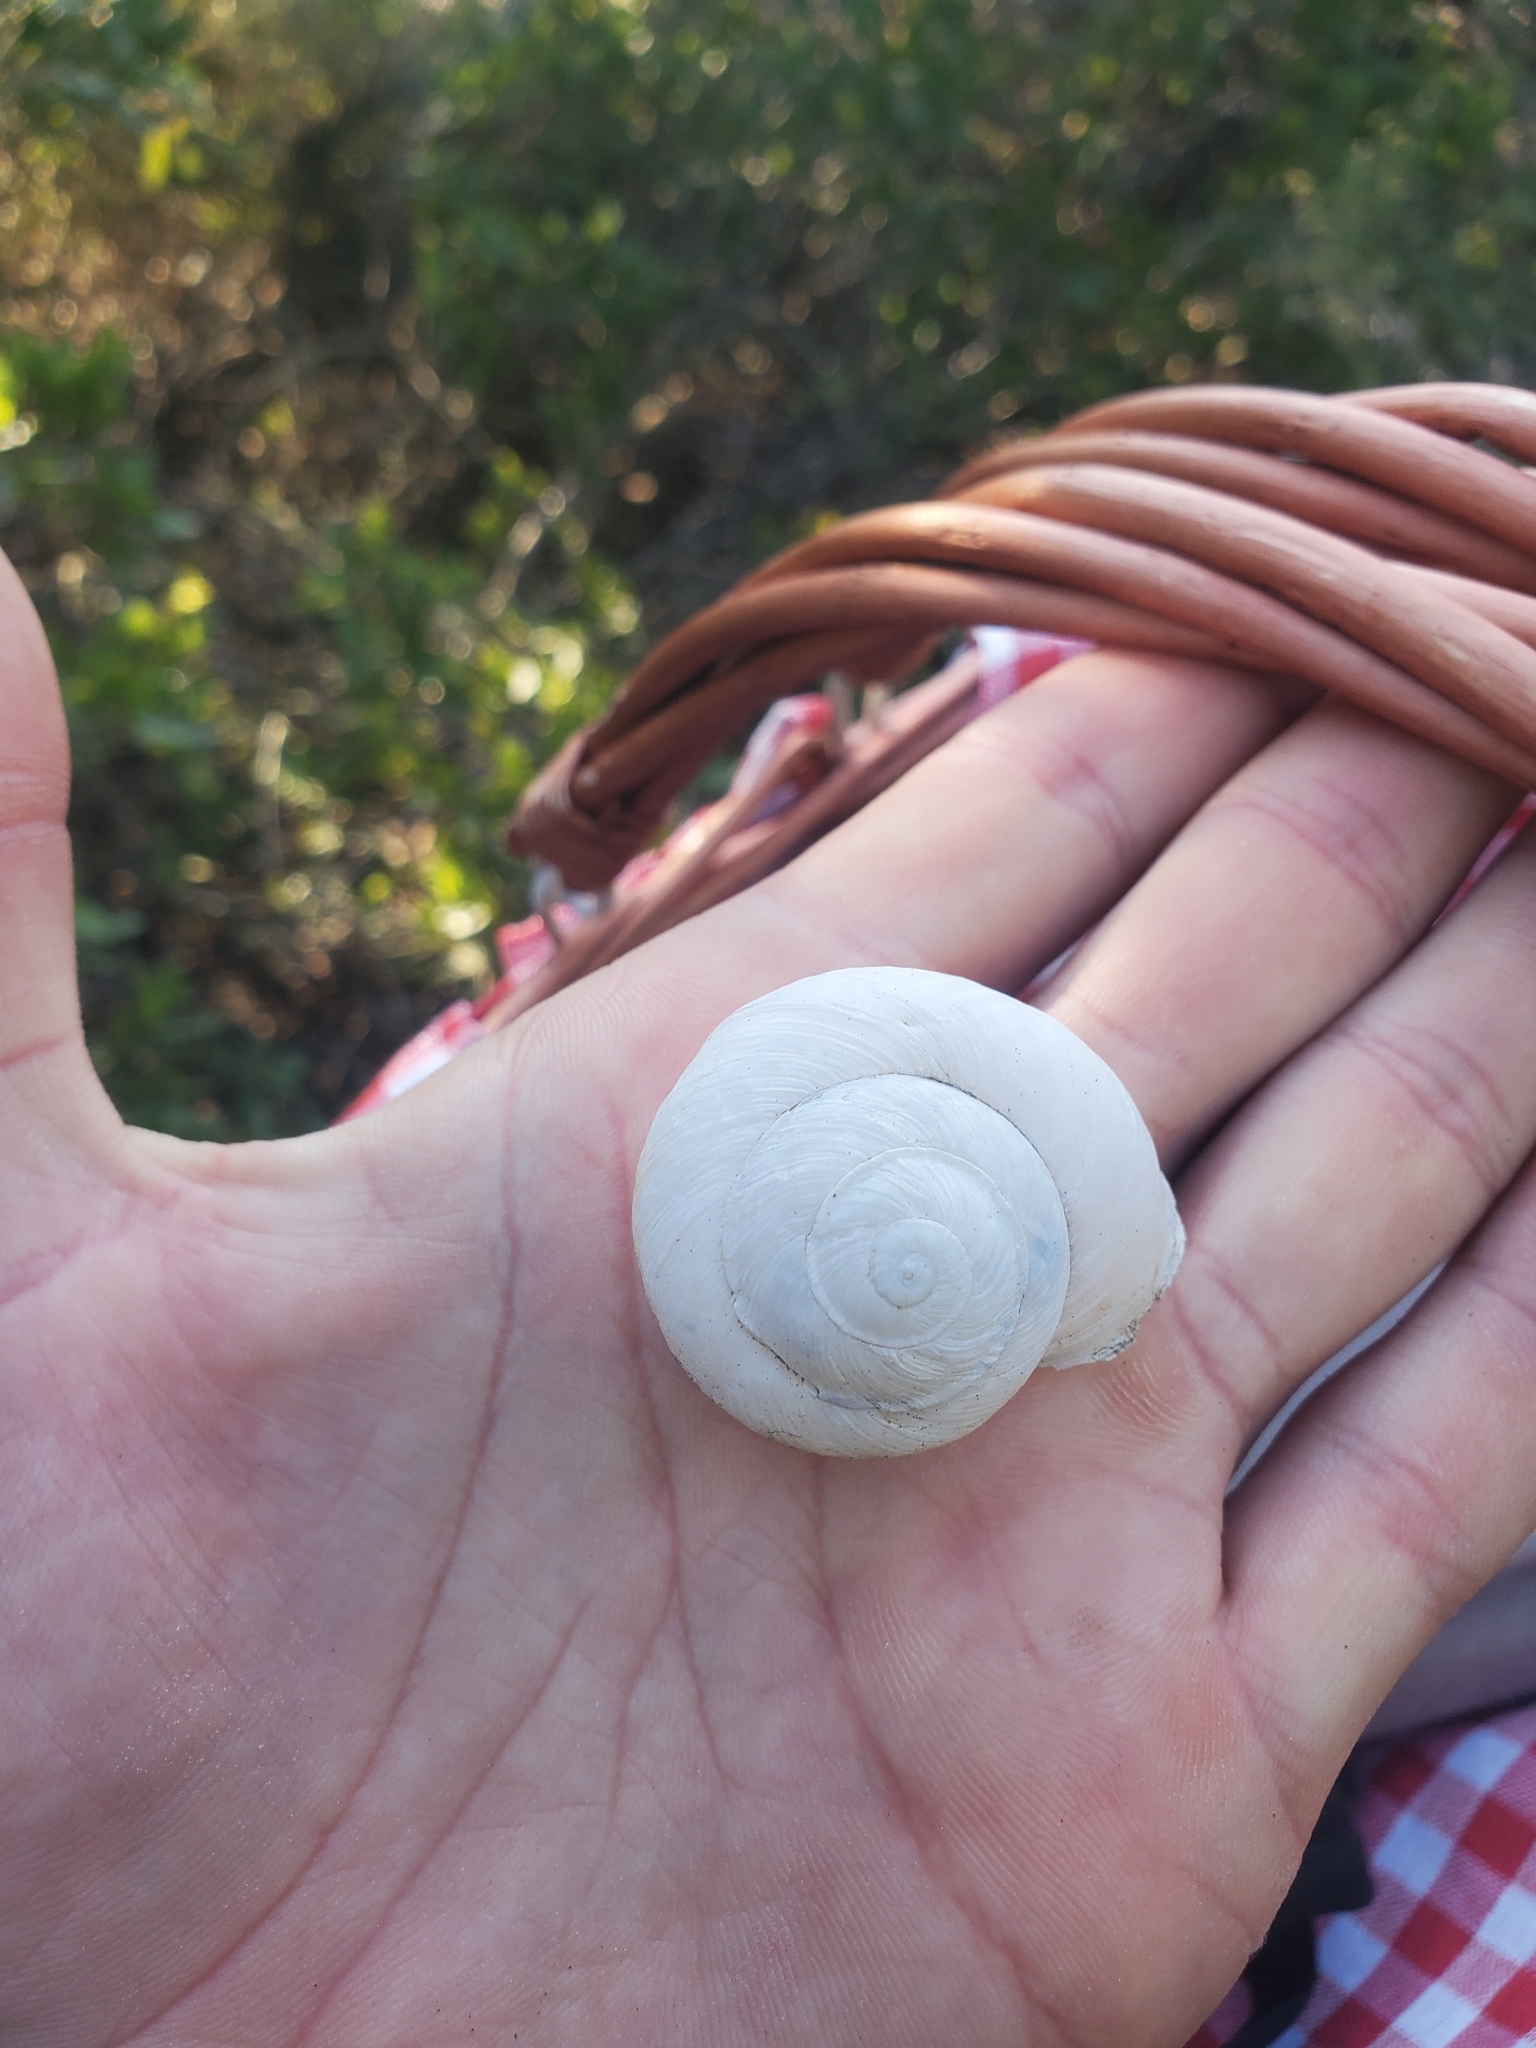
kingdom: Animalia
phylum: Mollusca
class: Gastropoda
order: Stylommatophora
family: Helicidae
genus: Levantina
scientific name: Levantina spiriplana
